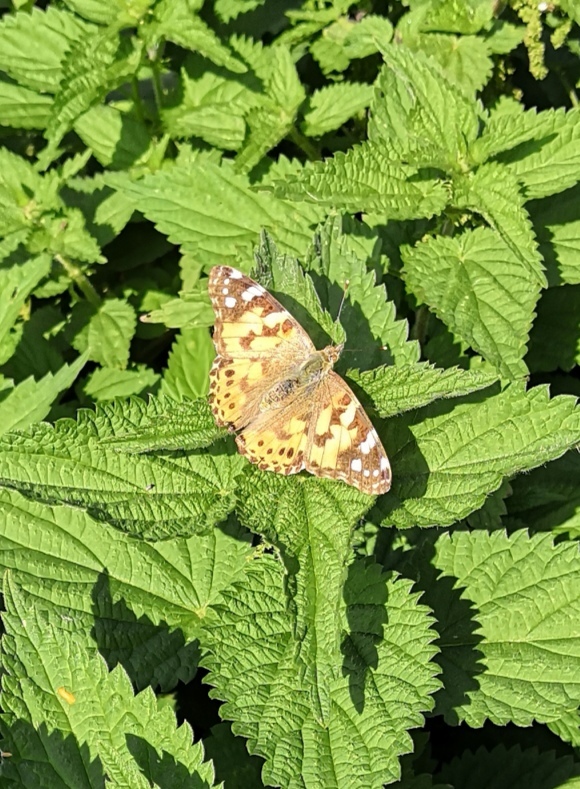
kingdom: Animalia
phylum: Arthropoda
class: Insecta
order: Lepidoptera
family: Nymphalidae
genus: Vanessa
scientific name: Vanessa cardui
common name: Painted lady
